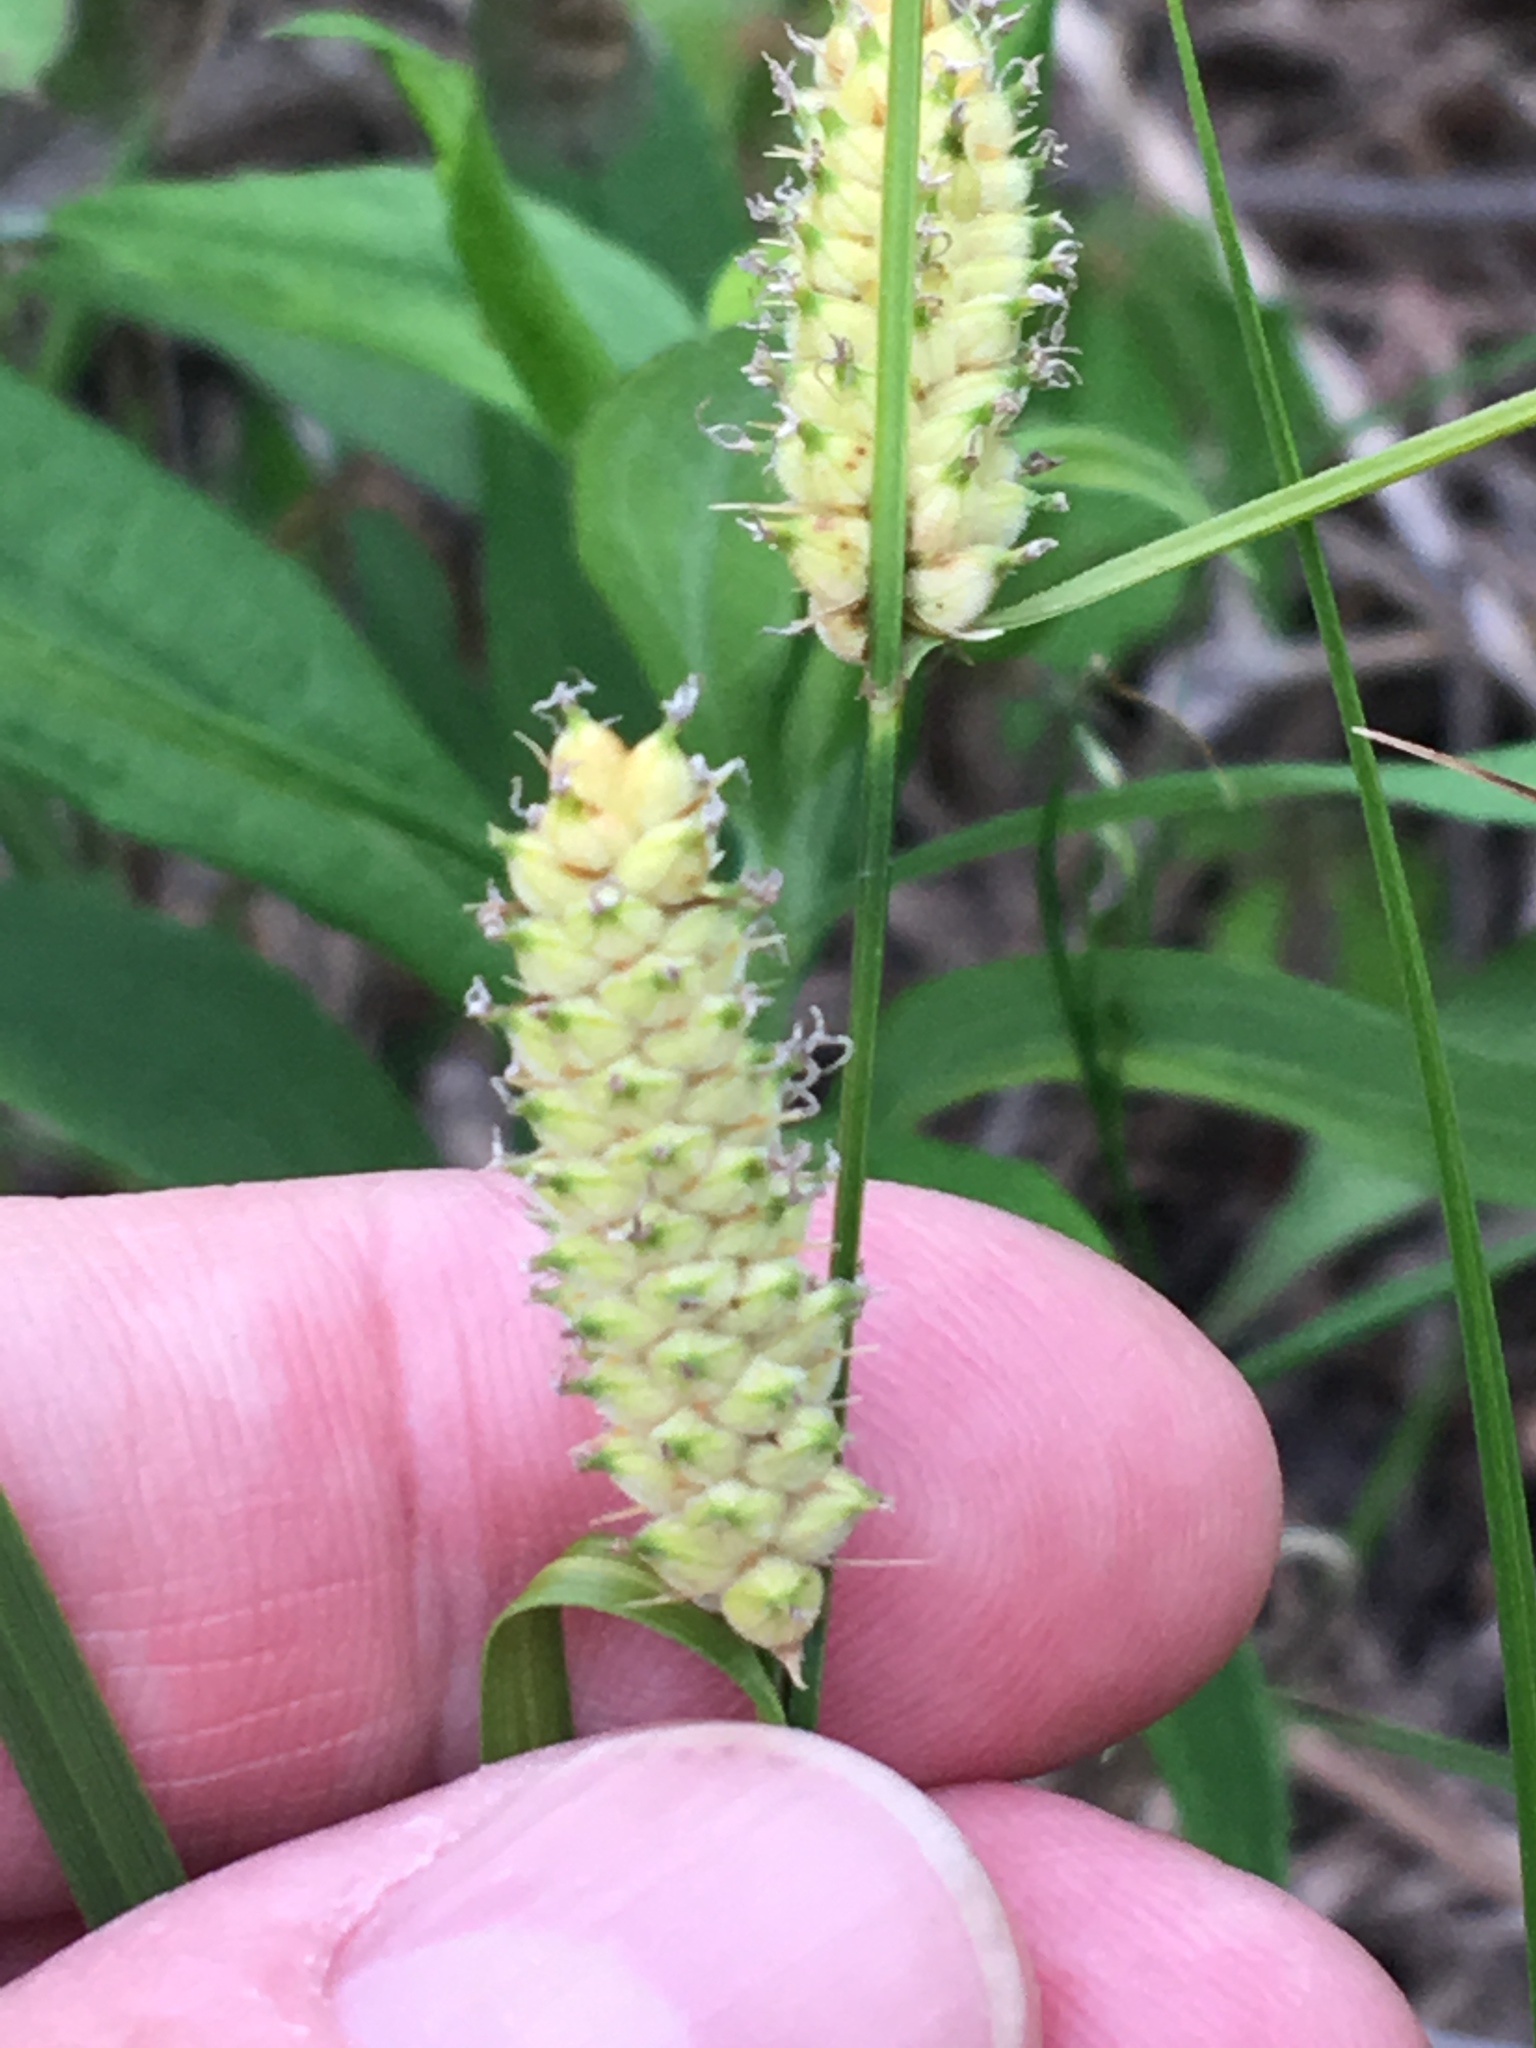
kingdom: Plantae
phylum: Tracheophyta
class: Liliopsida
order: Poales
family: Cyperaceae
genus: Carex
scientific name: Carex pellita
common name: Woolly sedge
